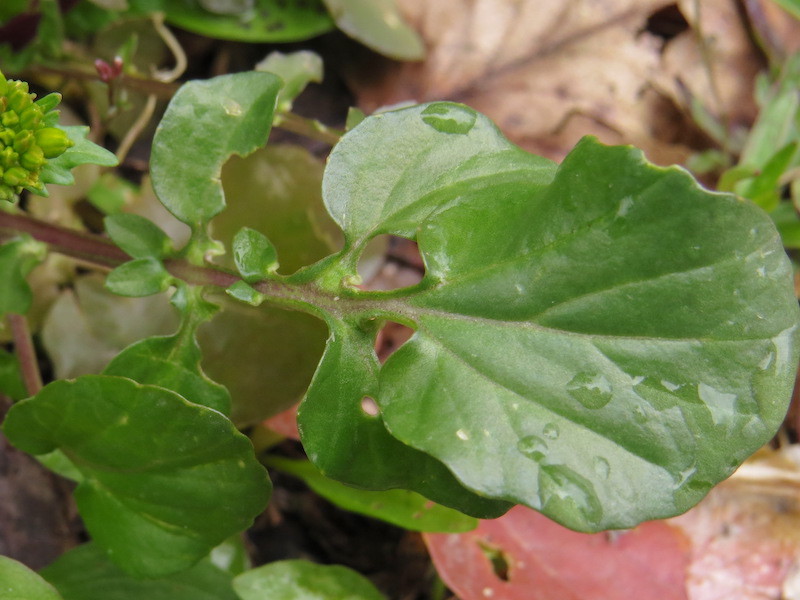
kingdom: Plantae
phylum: Tracheophyta
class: Magnoliopsida
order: Brassicales
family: Brassicaceae
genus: Barbarea
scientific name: Barbarea vulgaris
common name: Cressy-greens
